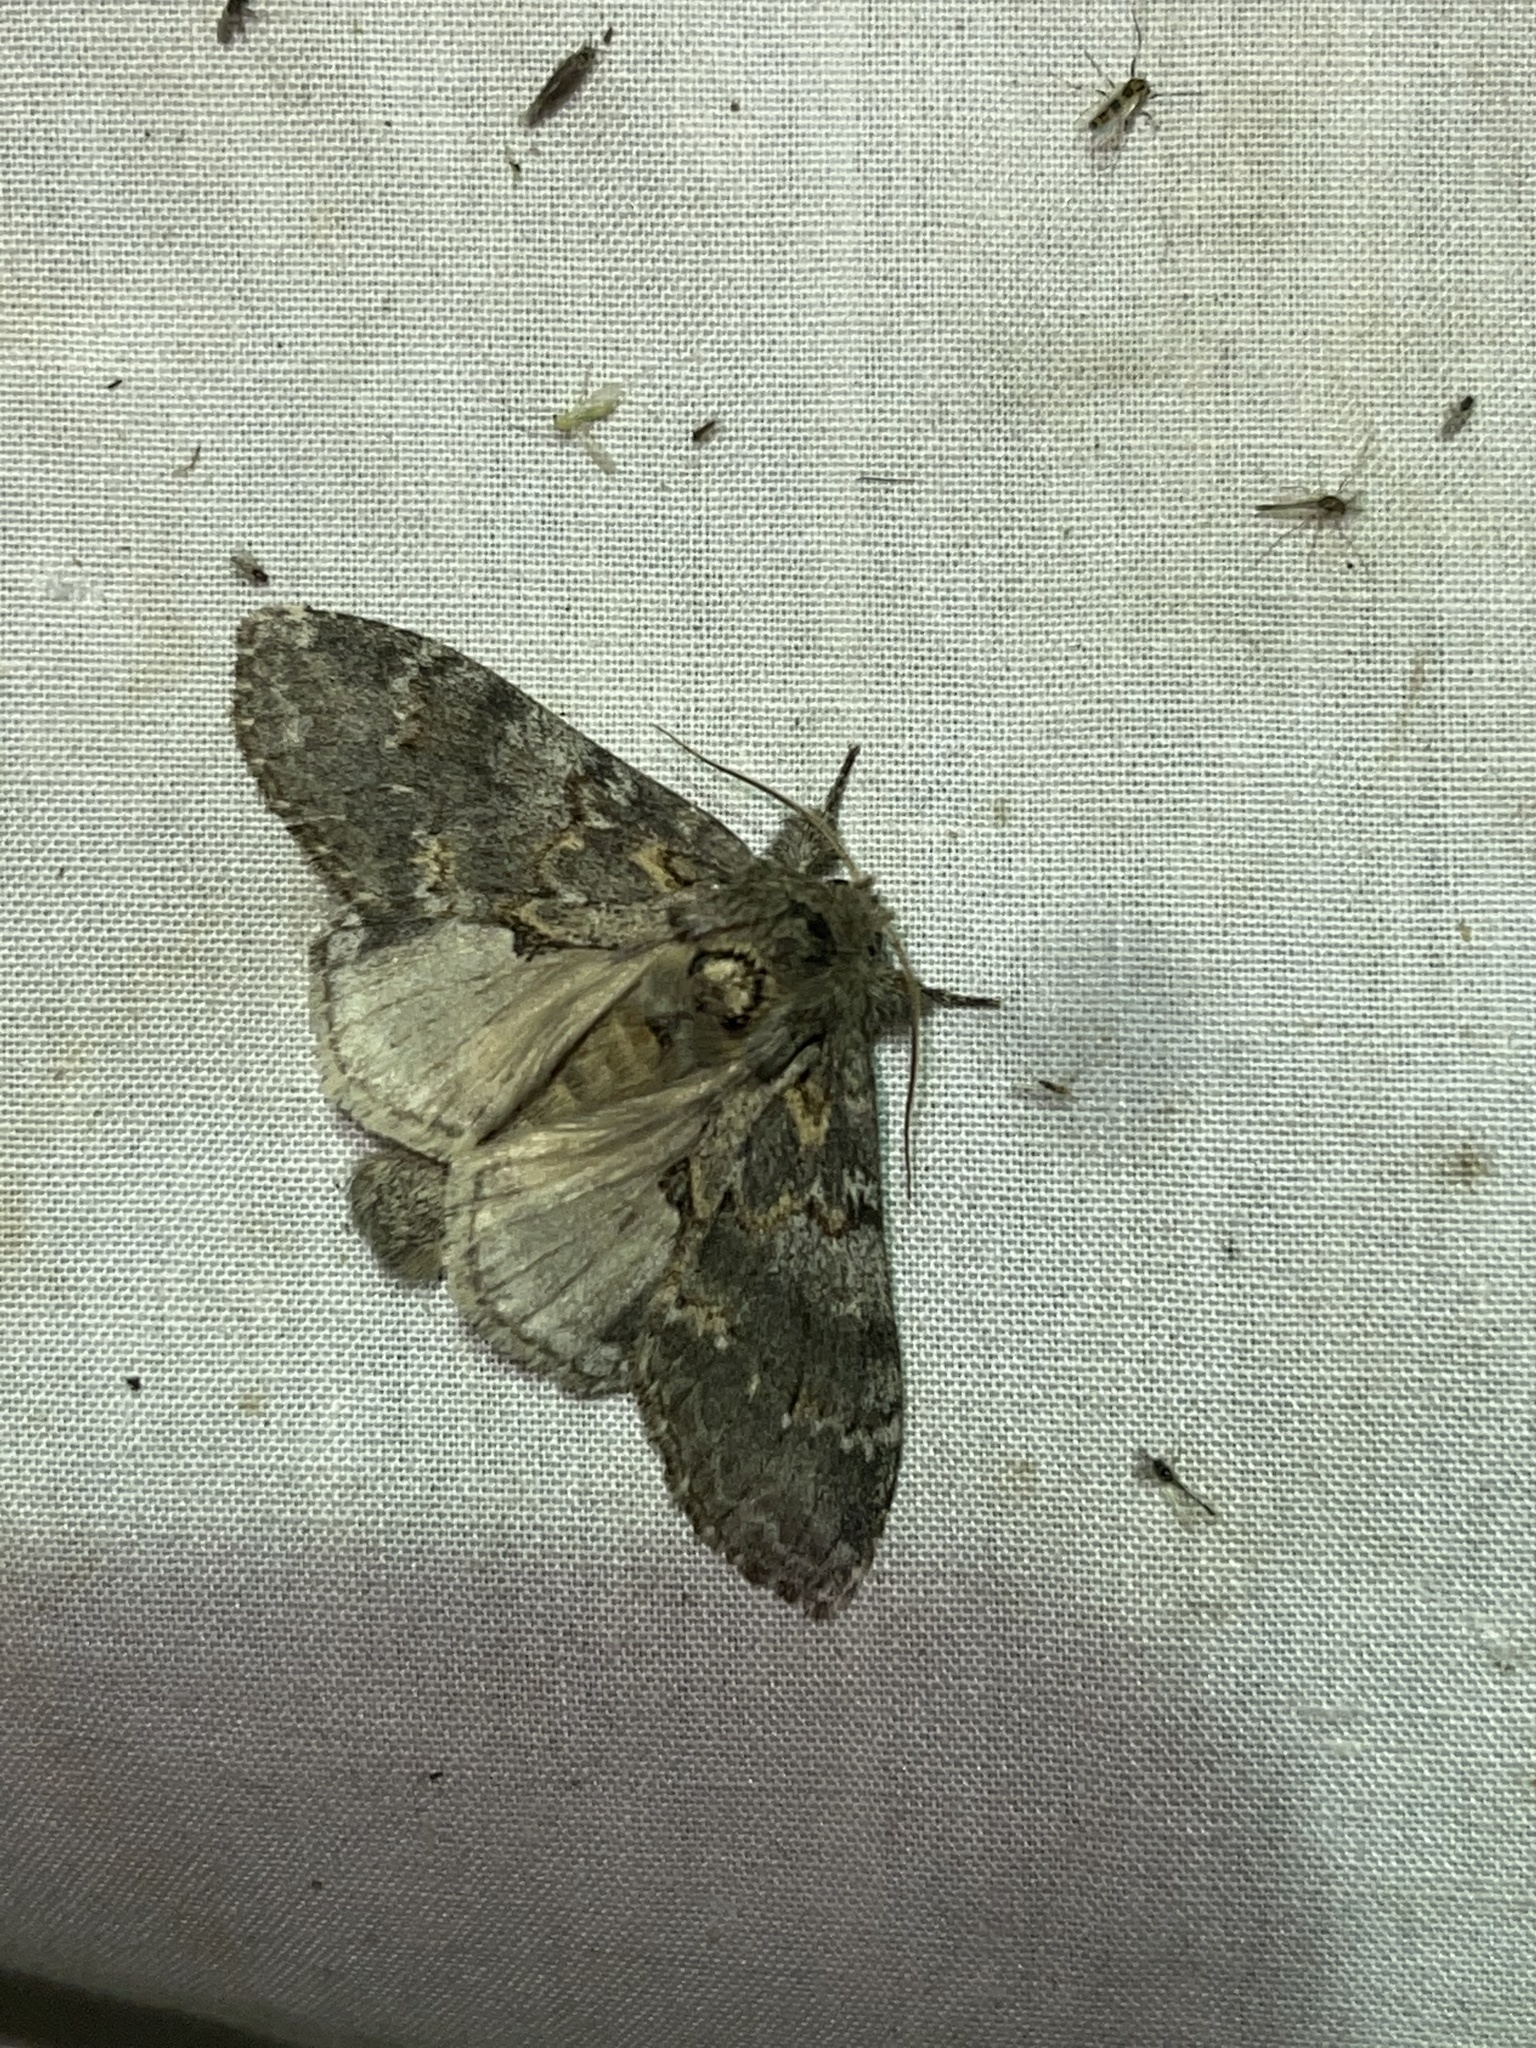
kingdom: Animalia
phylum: Arthropoda
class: Insecta
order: Lepidoptera
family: Notodontidae
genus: Peridea
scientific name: Peridea angulosa
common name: Angulose prominent
